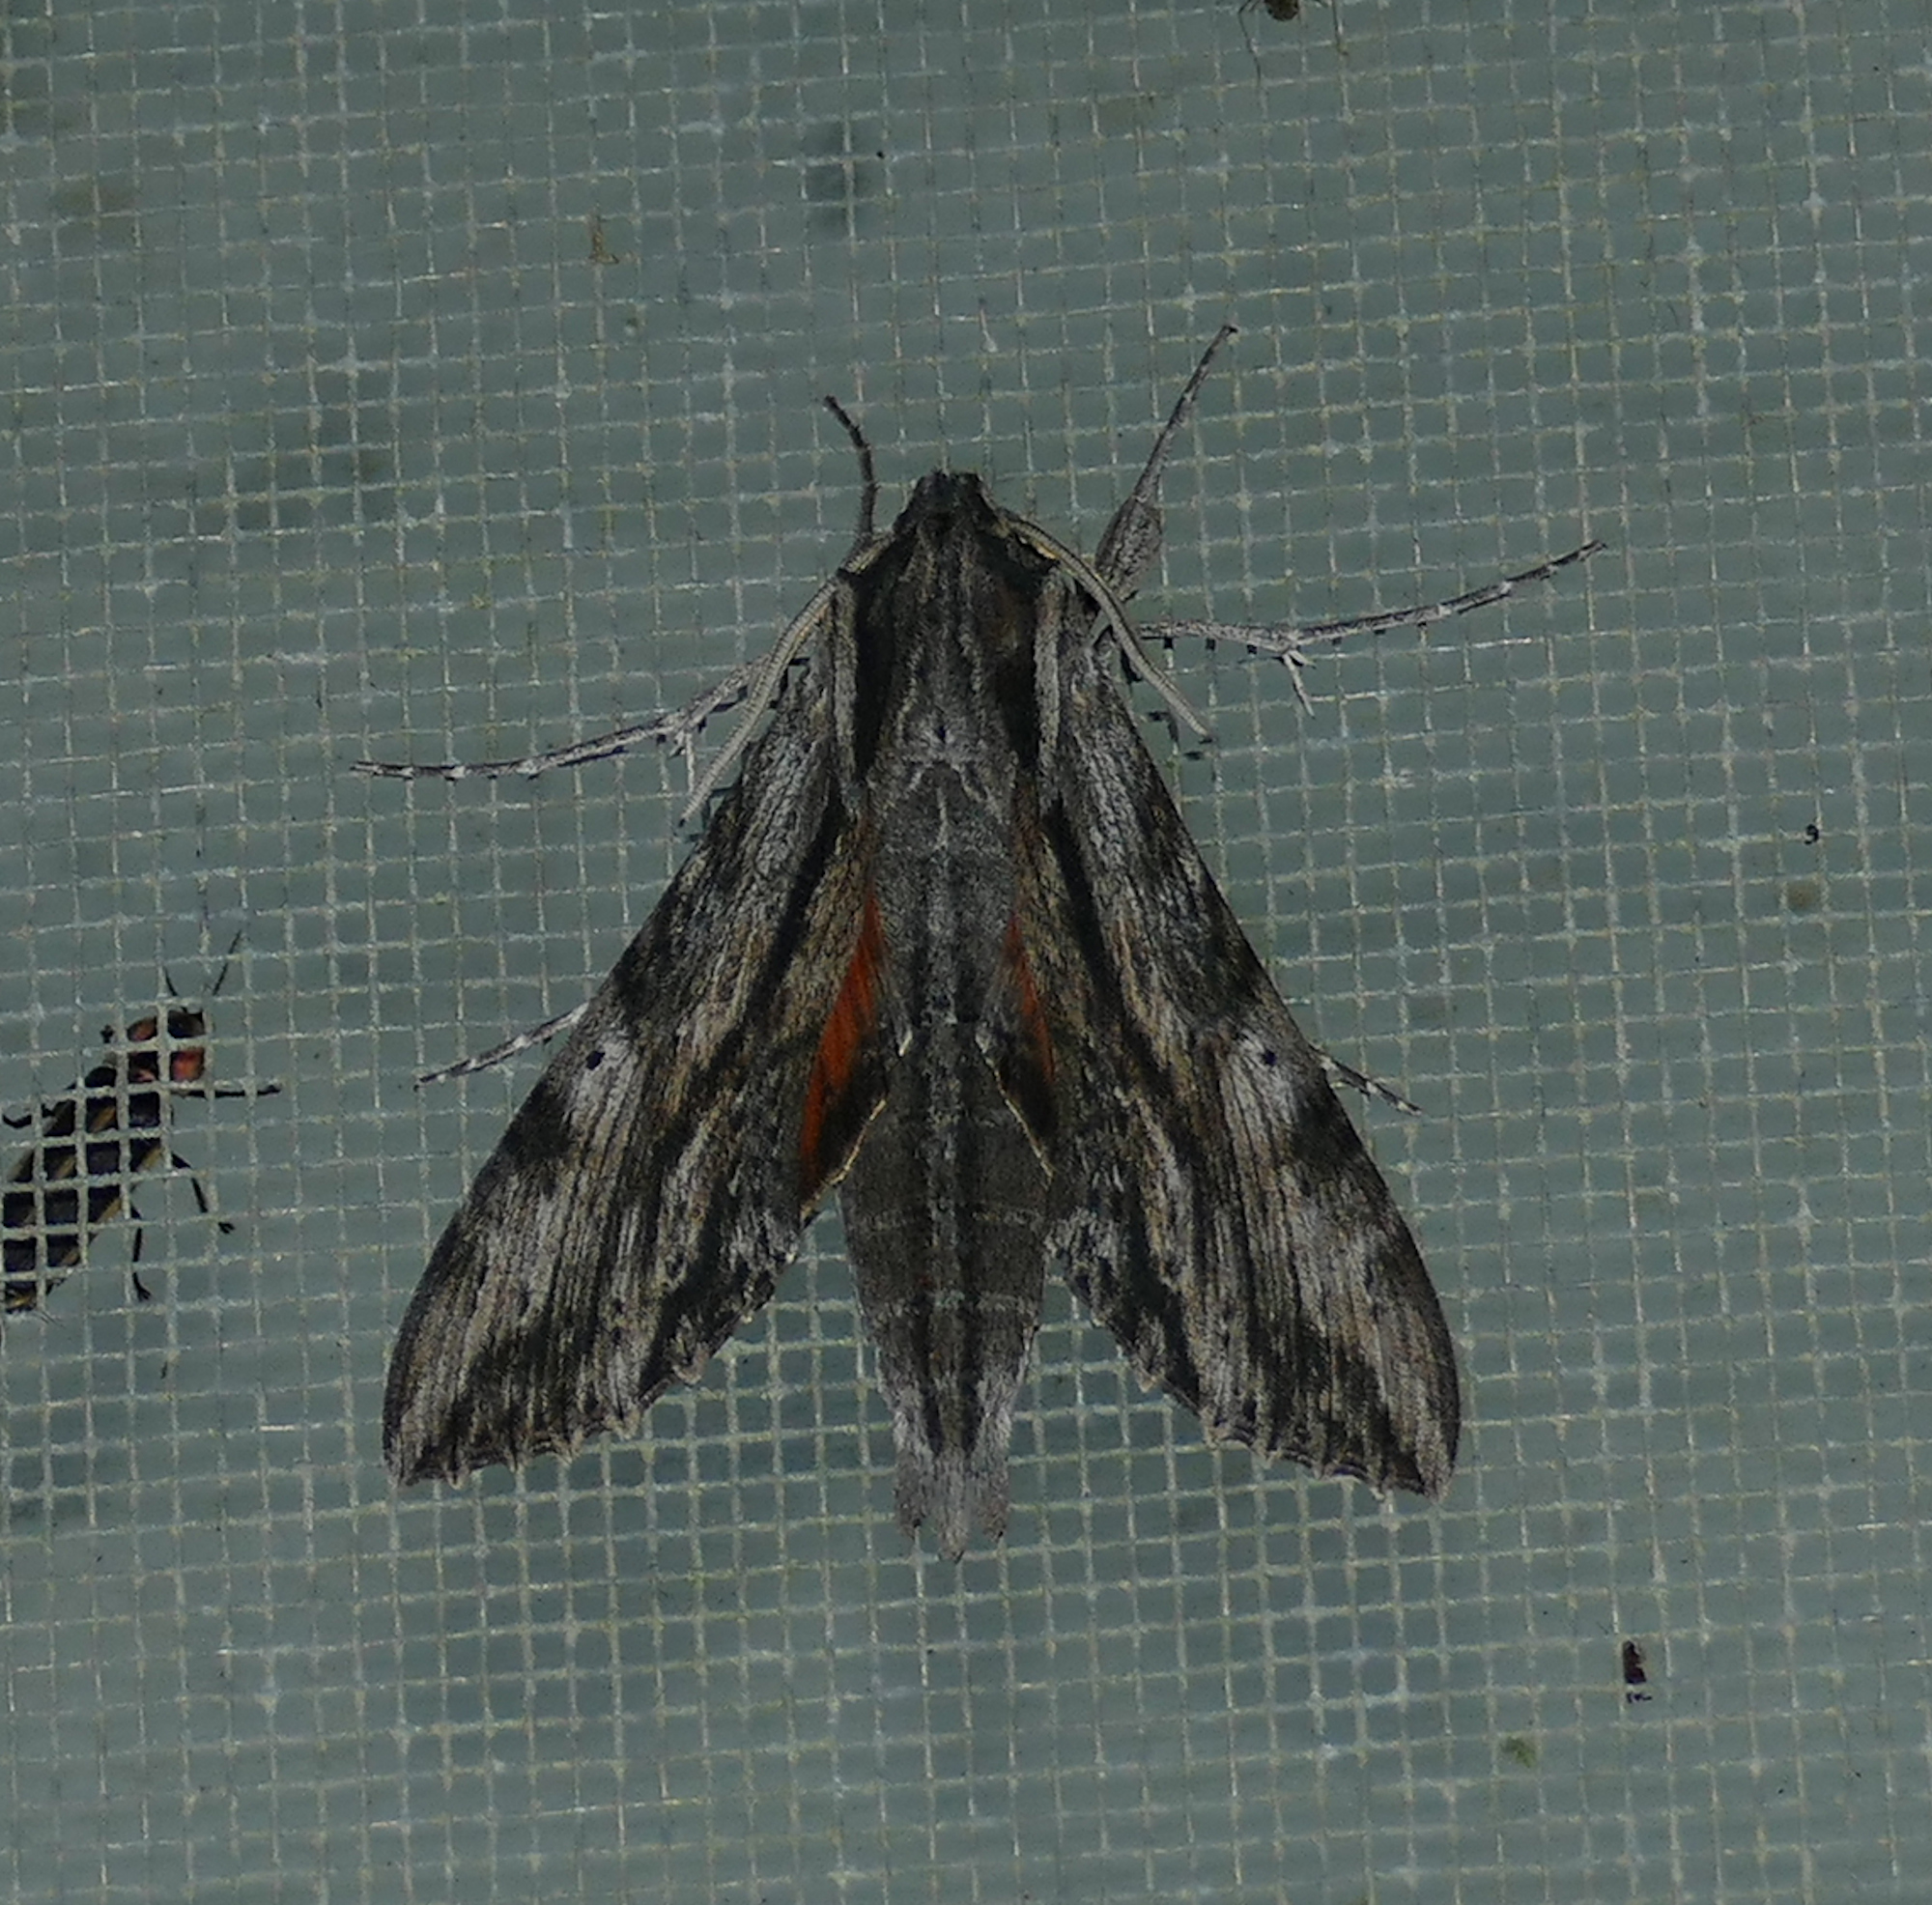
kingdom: Animalia
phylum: Arthropoda
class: Insecta
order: Lepidoptera
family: Sphingidae
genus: Erinnyis
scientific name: Erinnyis obscura
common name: Obscure sphinx
